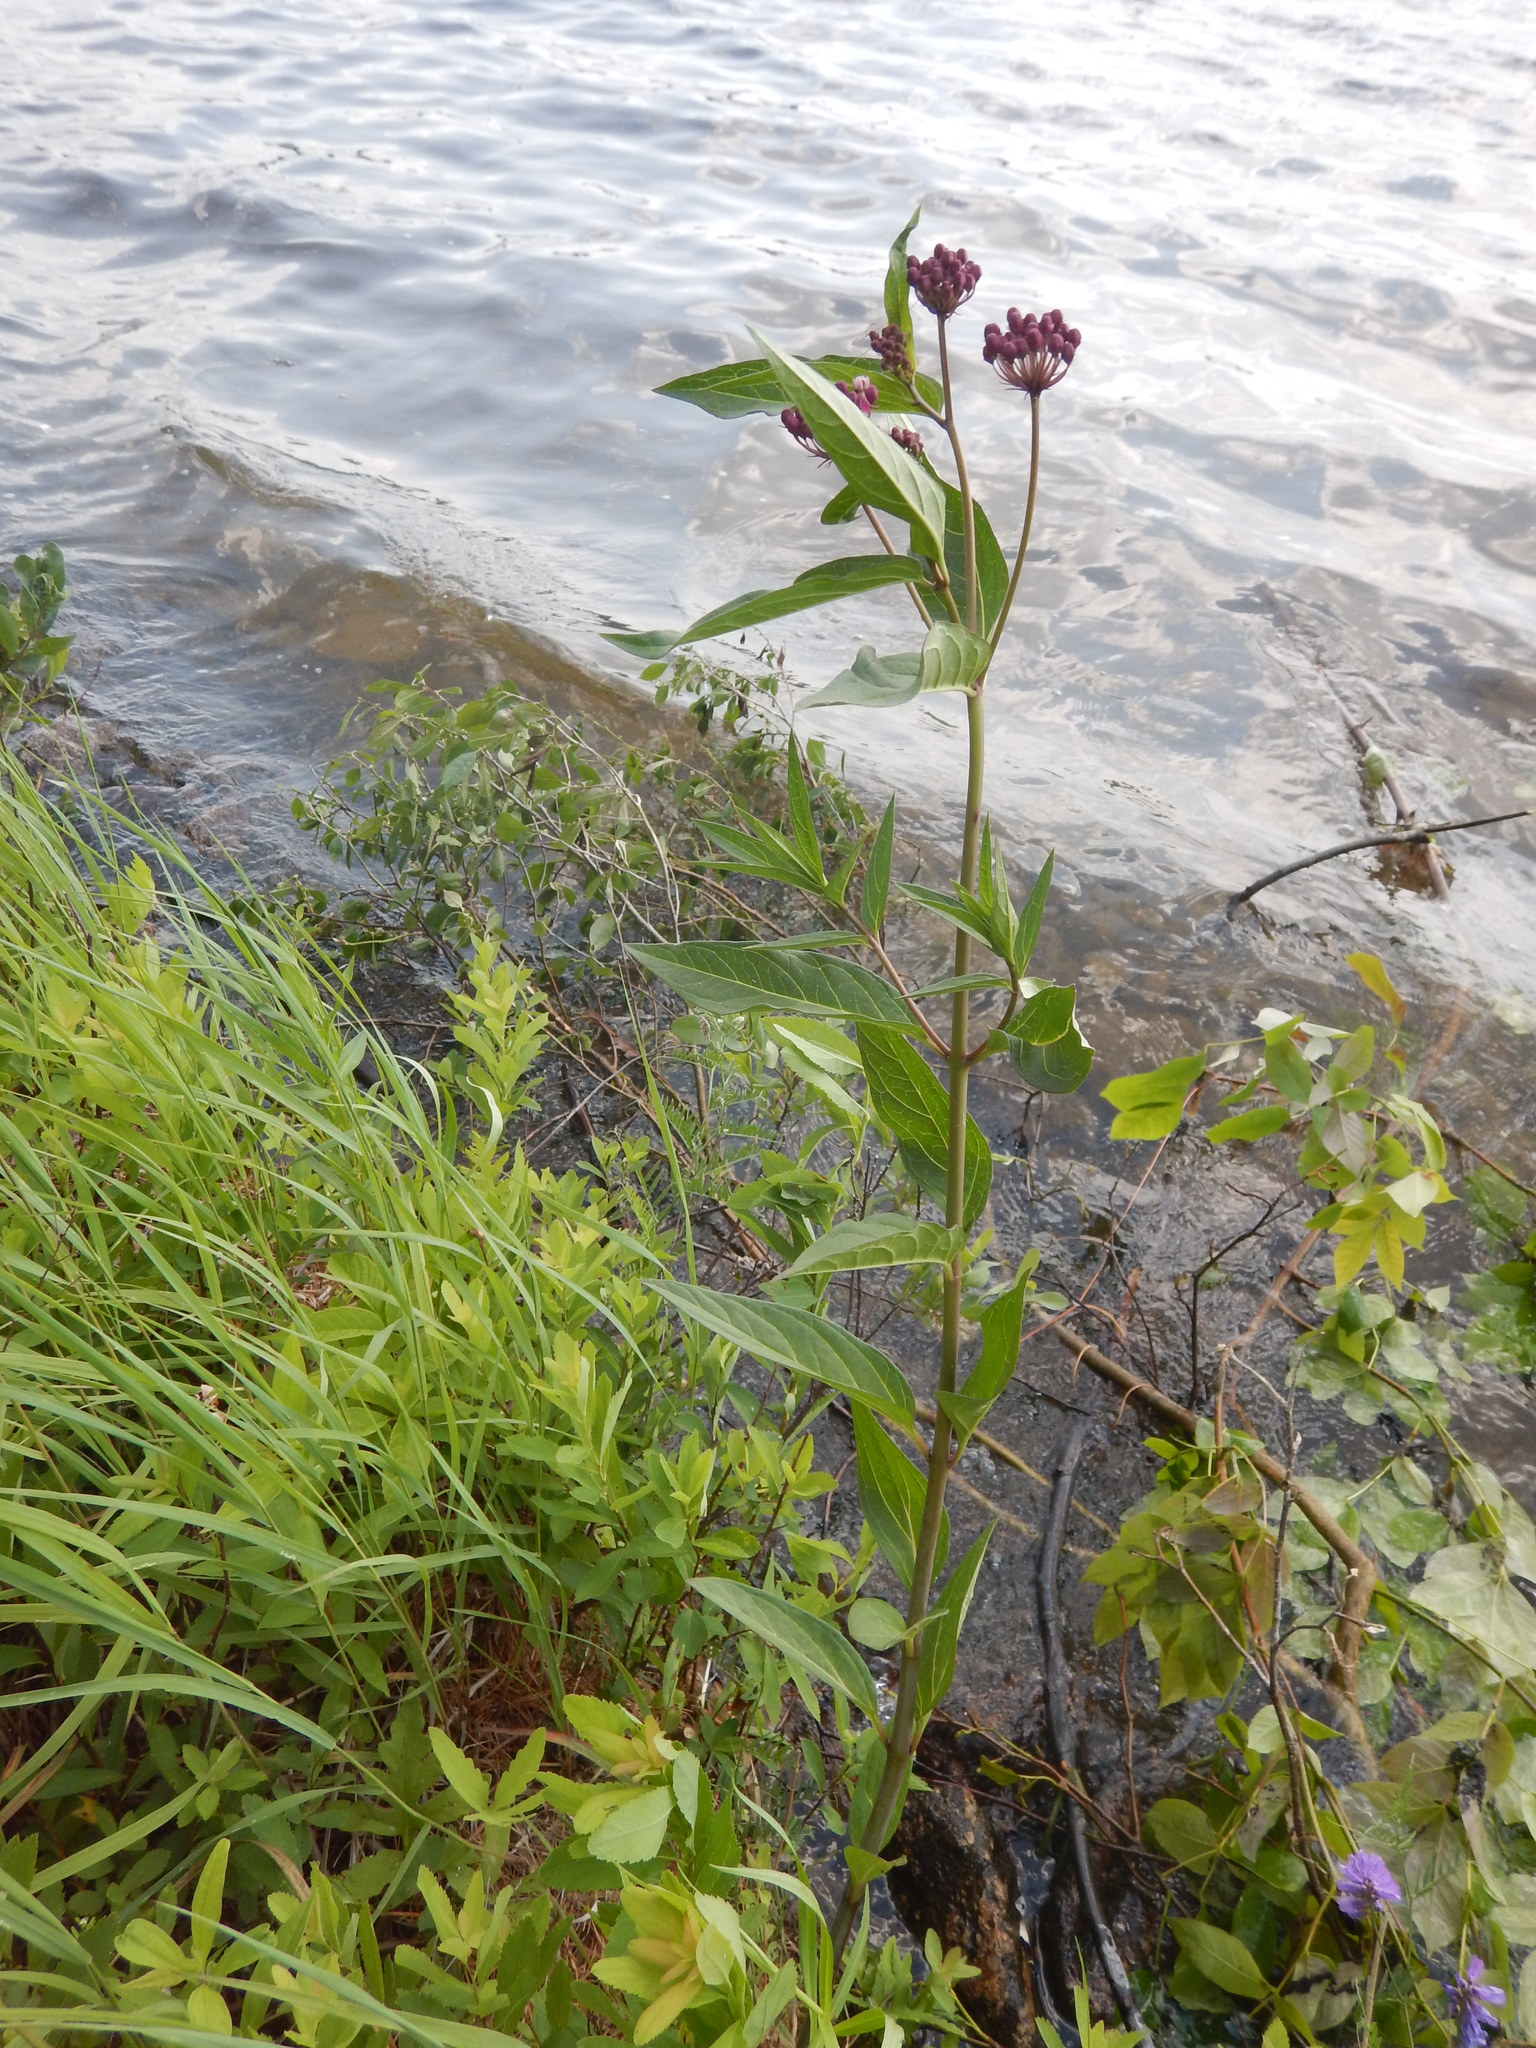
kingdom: Plantae
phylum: Tracheophyta
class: Magnoliopsida
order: Gentianales
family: Apocynaceae
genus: Asclepias
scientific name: Asclepias incarnata
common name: Swamp milkweed
